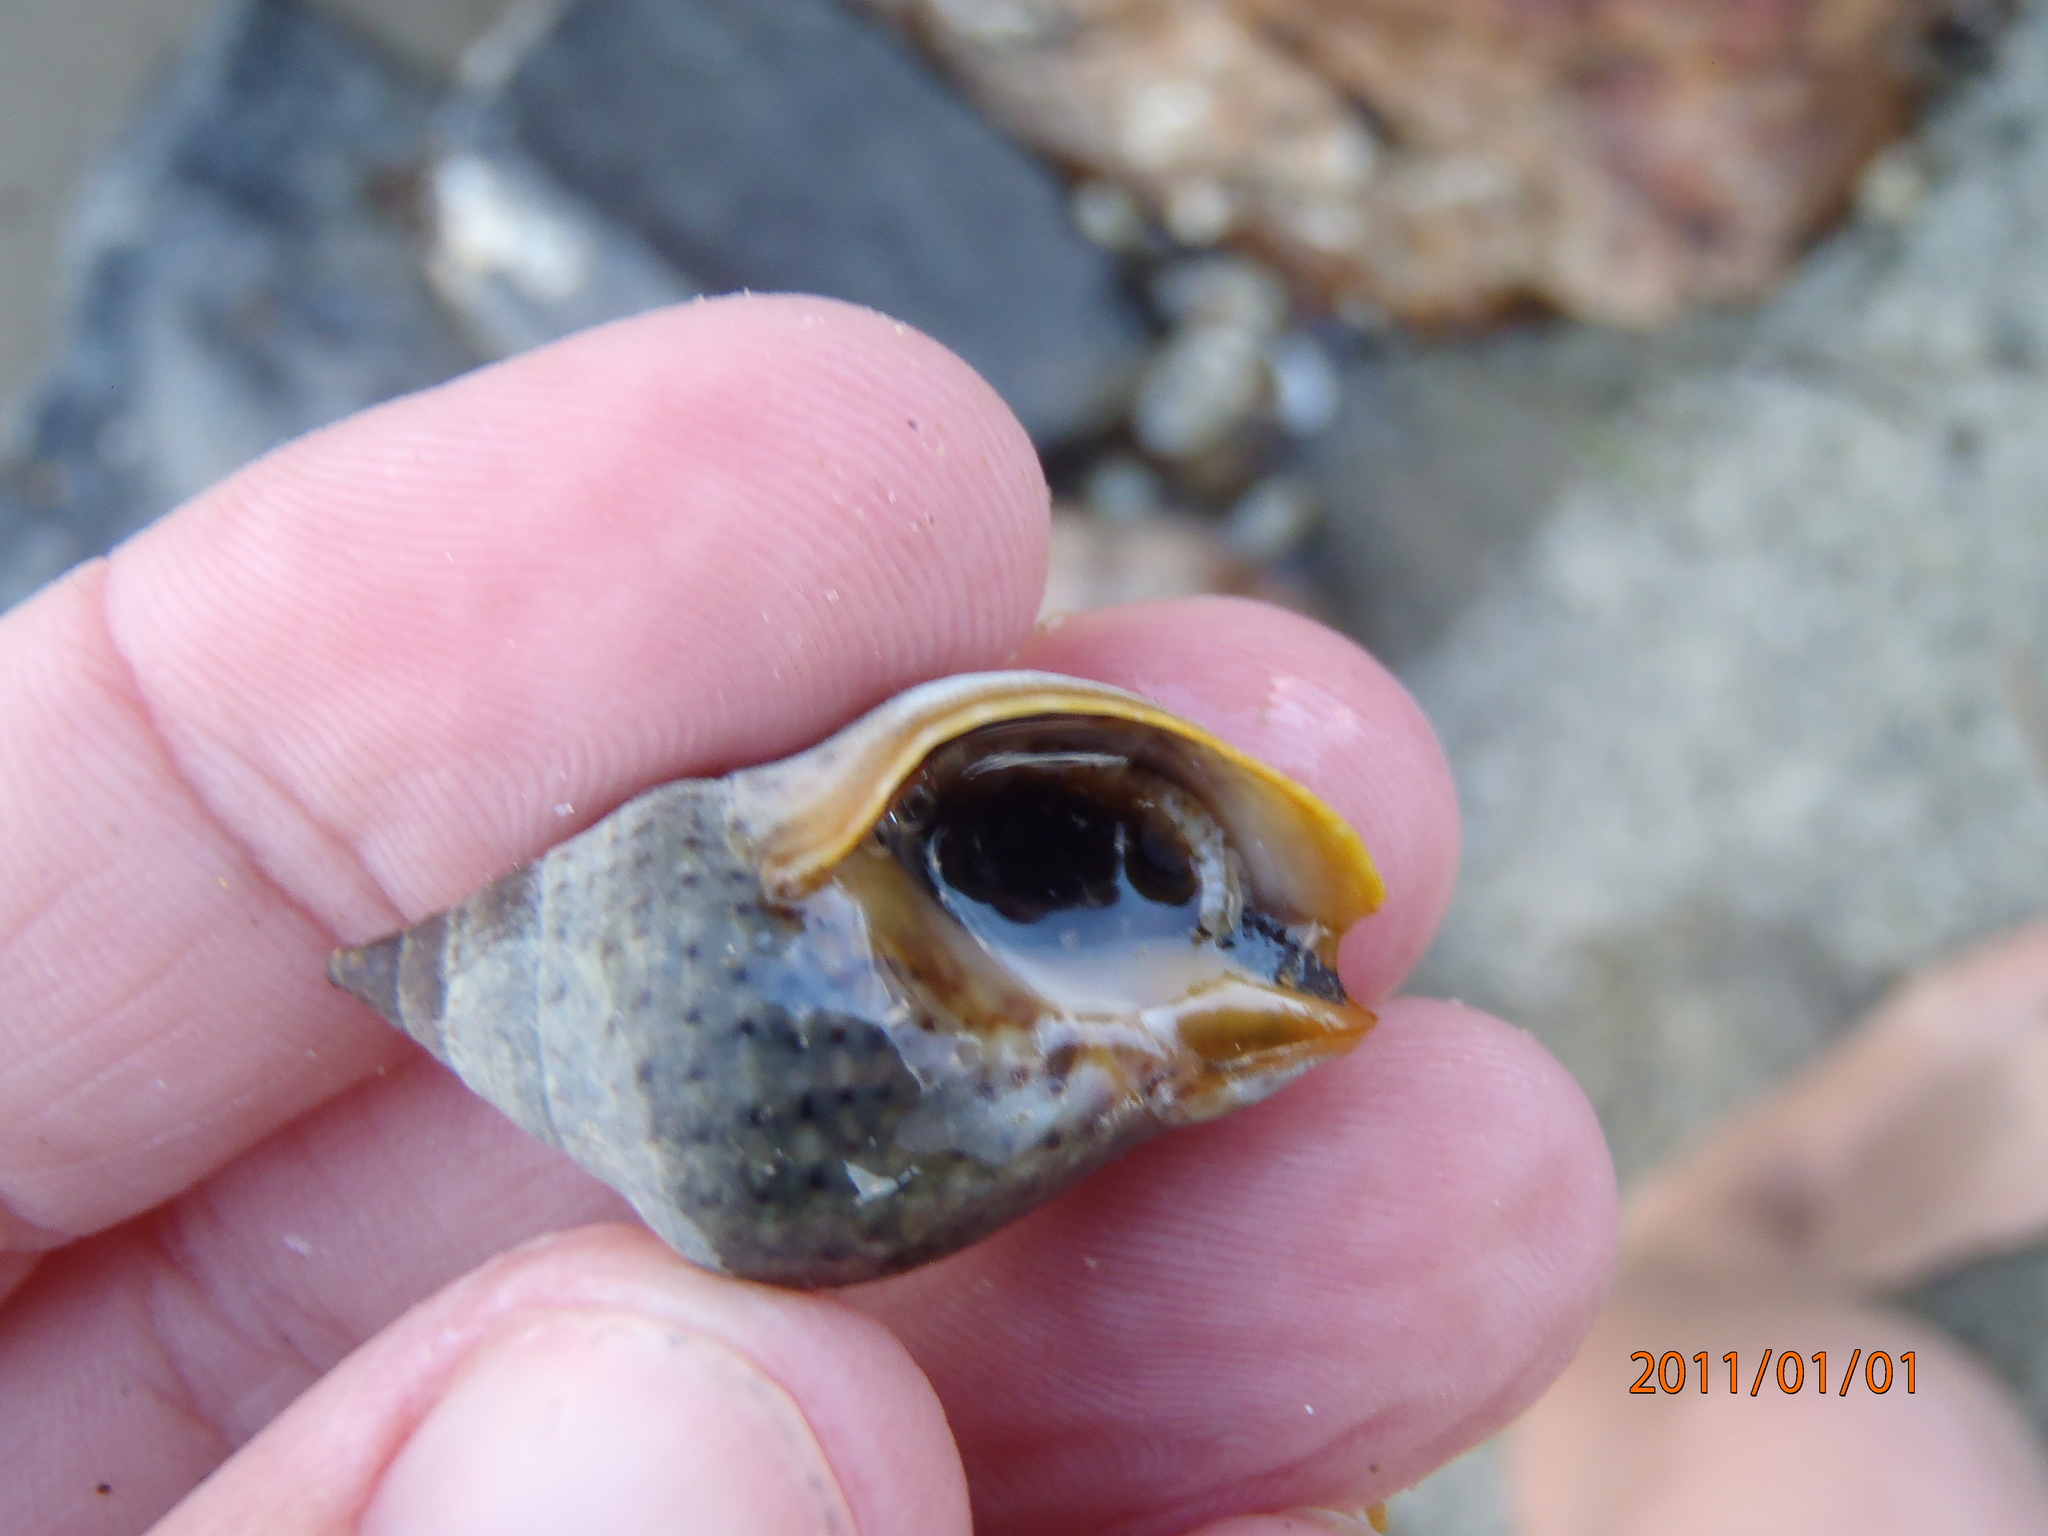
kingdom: Animalia
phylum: Mollusca
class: Gastropoda
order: Neogastropoda
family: Cominellidae
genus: Cominella
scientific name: Cominella maculosa
